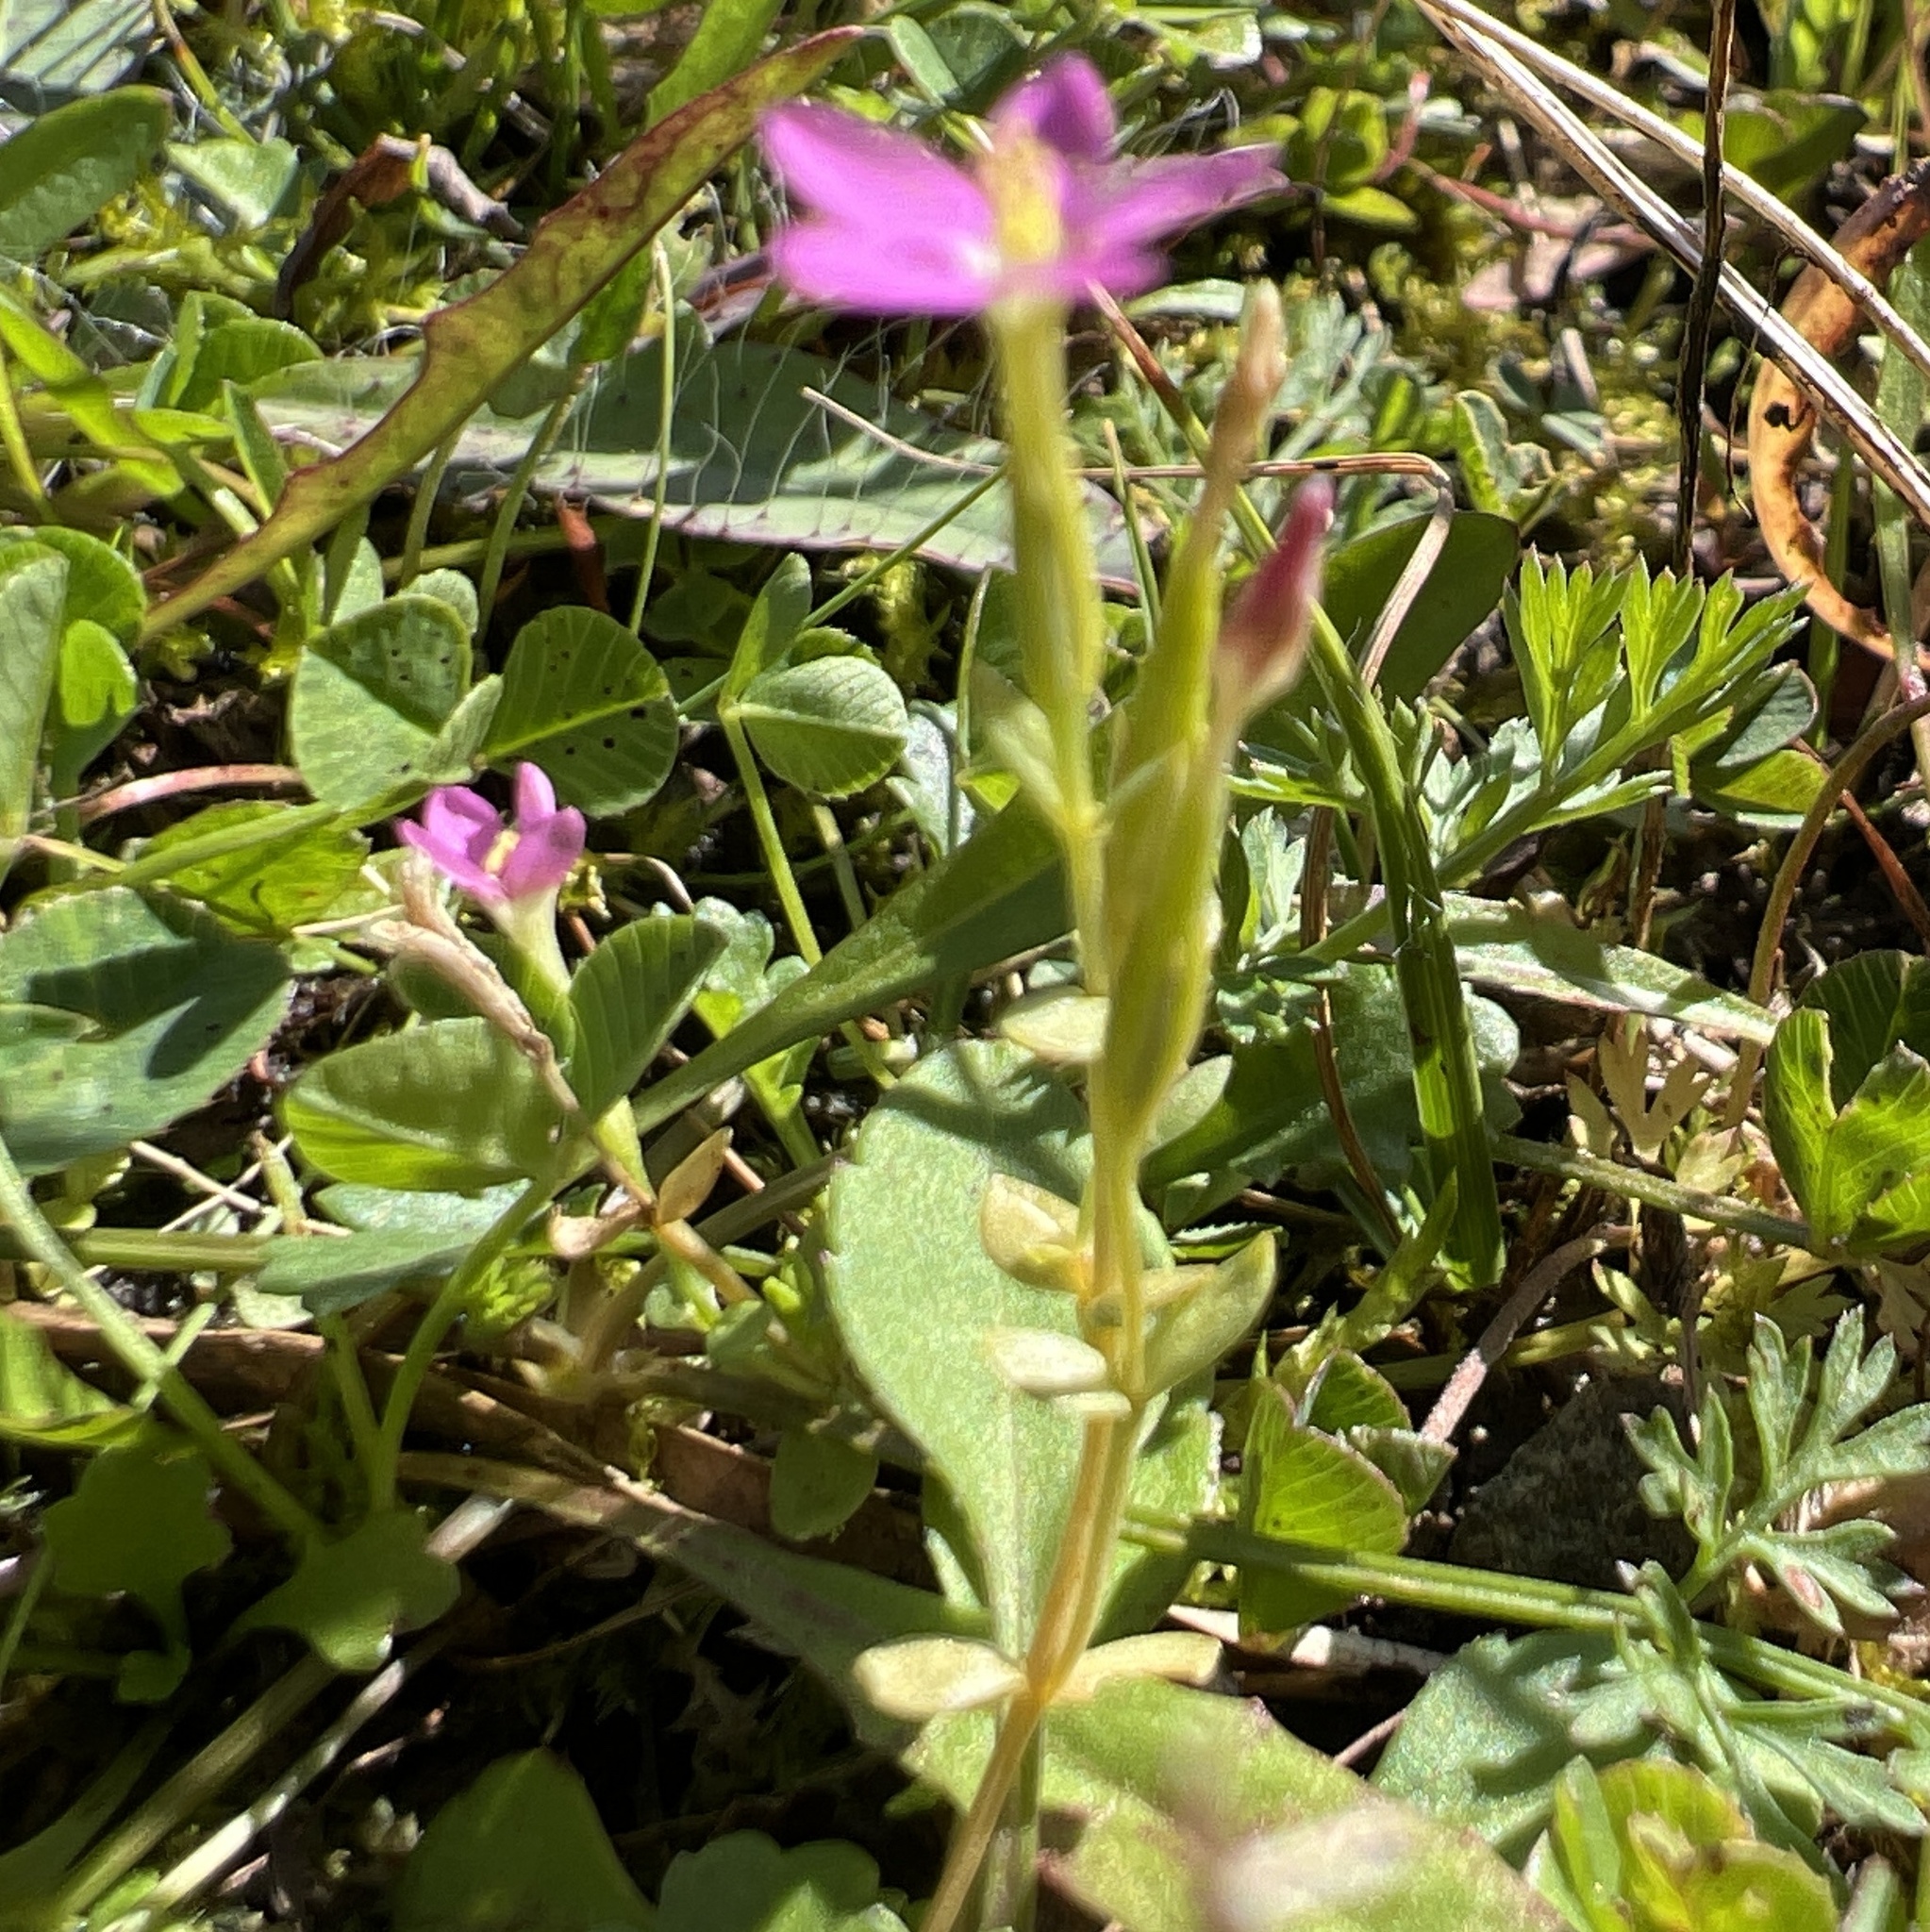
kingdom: Plantae
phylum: Tracheophyta
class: Magnoliopsida
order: Gentianales
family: Gentianaceae
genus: Centaurium
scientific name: Centaurium pulchellum
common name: Lesser centaury
